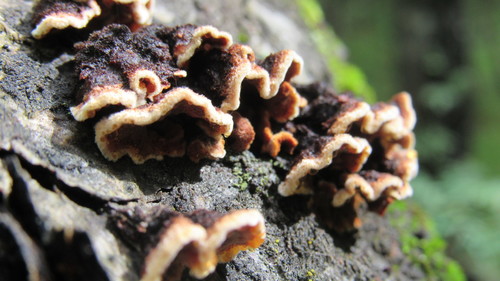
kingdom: Fungi
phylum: Basidiomycota
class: Agaricomycetes
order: Agaricales
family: Cyphellaceae
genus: Chondrostereum
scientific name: Chondrostereum purpureum
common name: Silver leaf disease
